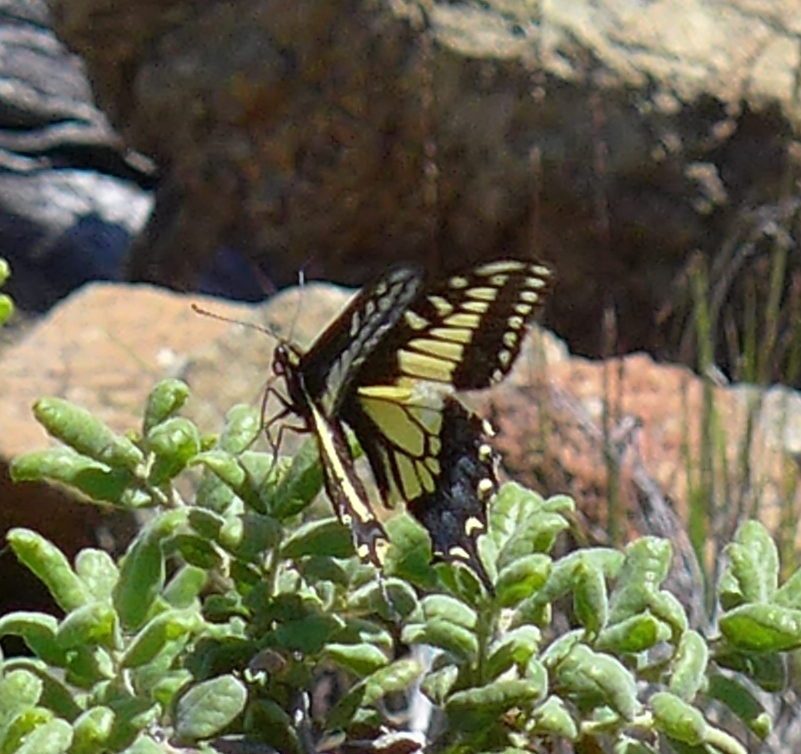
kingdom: Animalia
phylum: Arthropoda
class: Insecta
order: Lepidoptera
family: Papilionidae
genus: Papilio
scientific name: Papilio zelicaon
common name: Anise swallowtail
